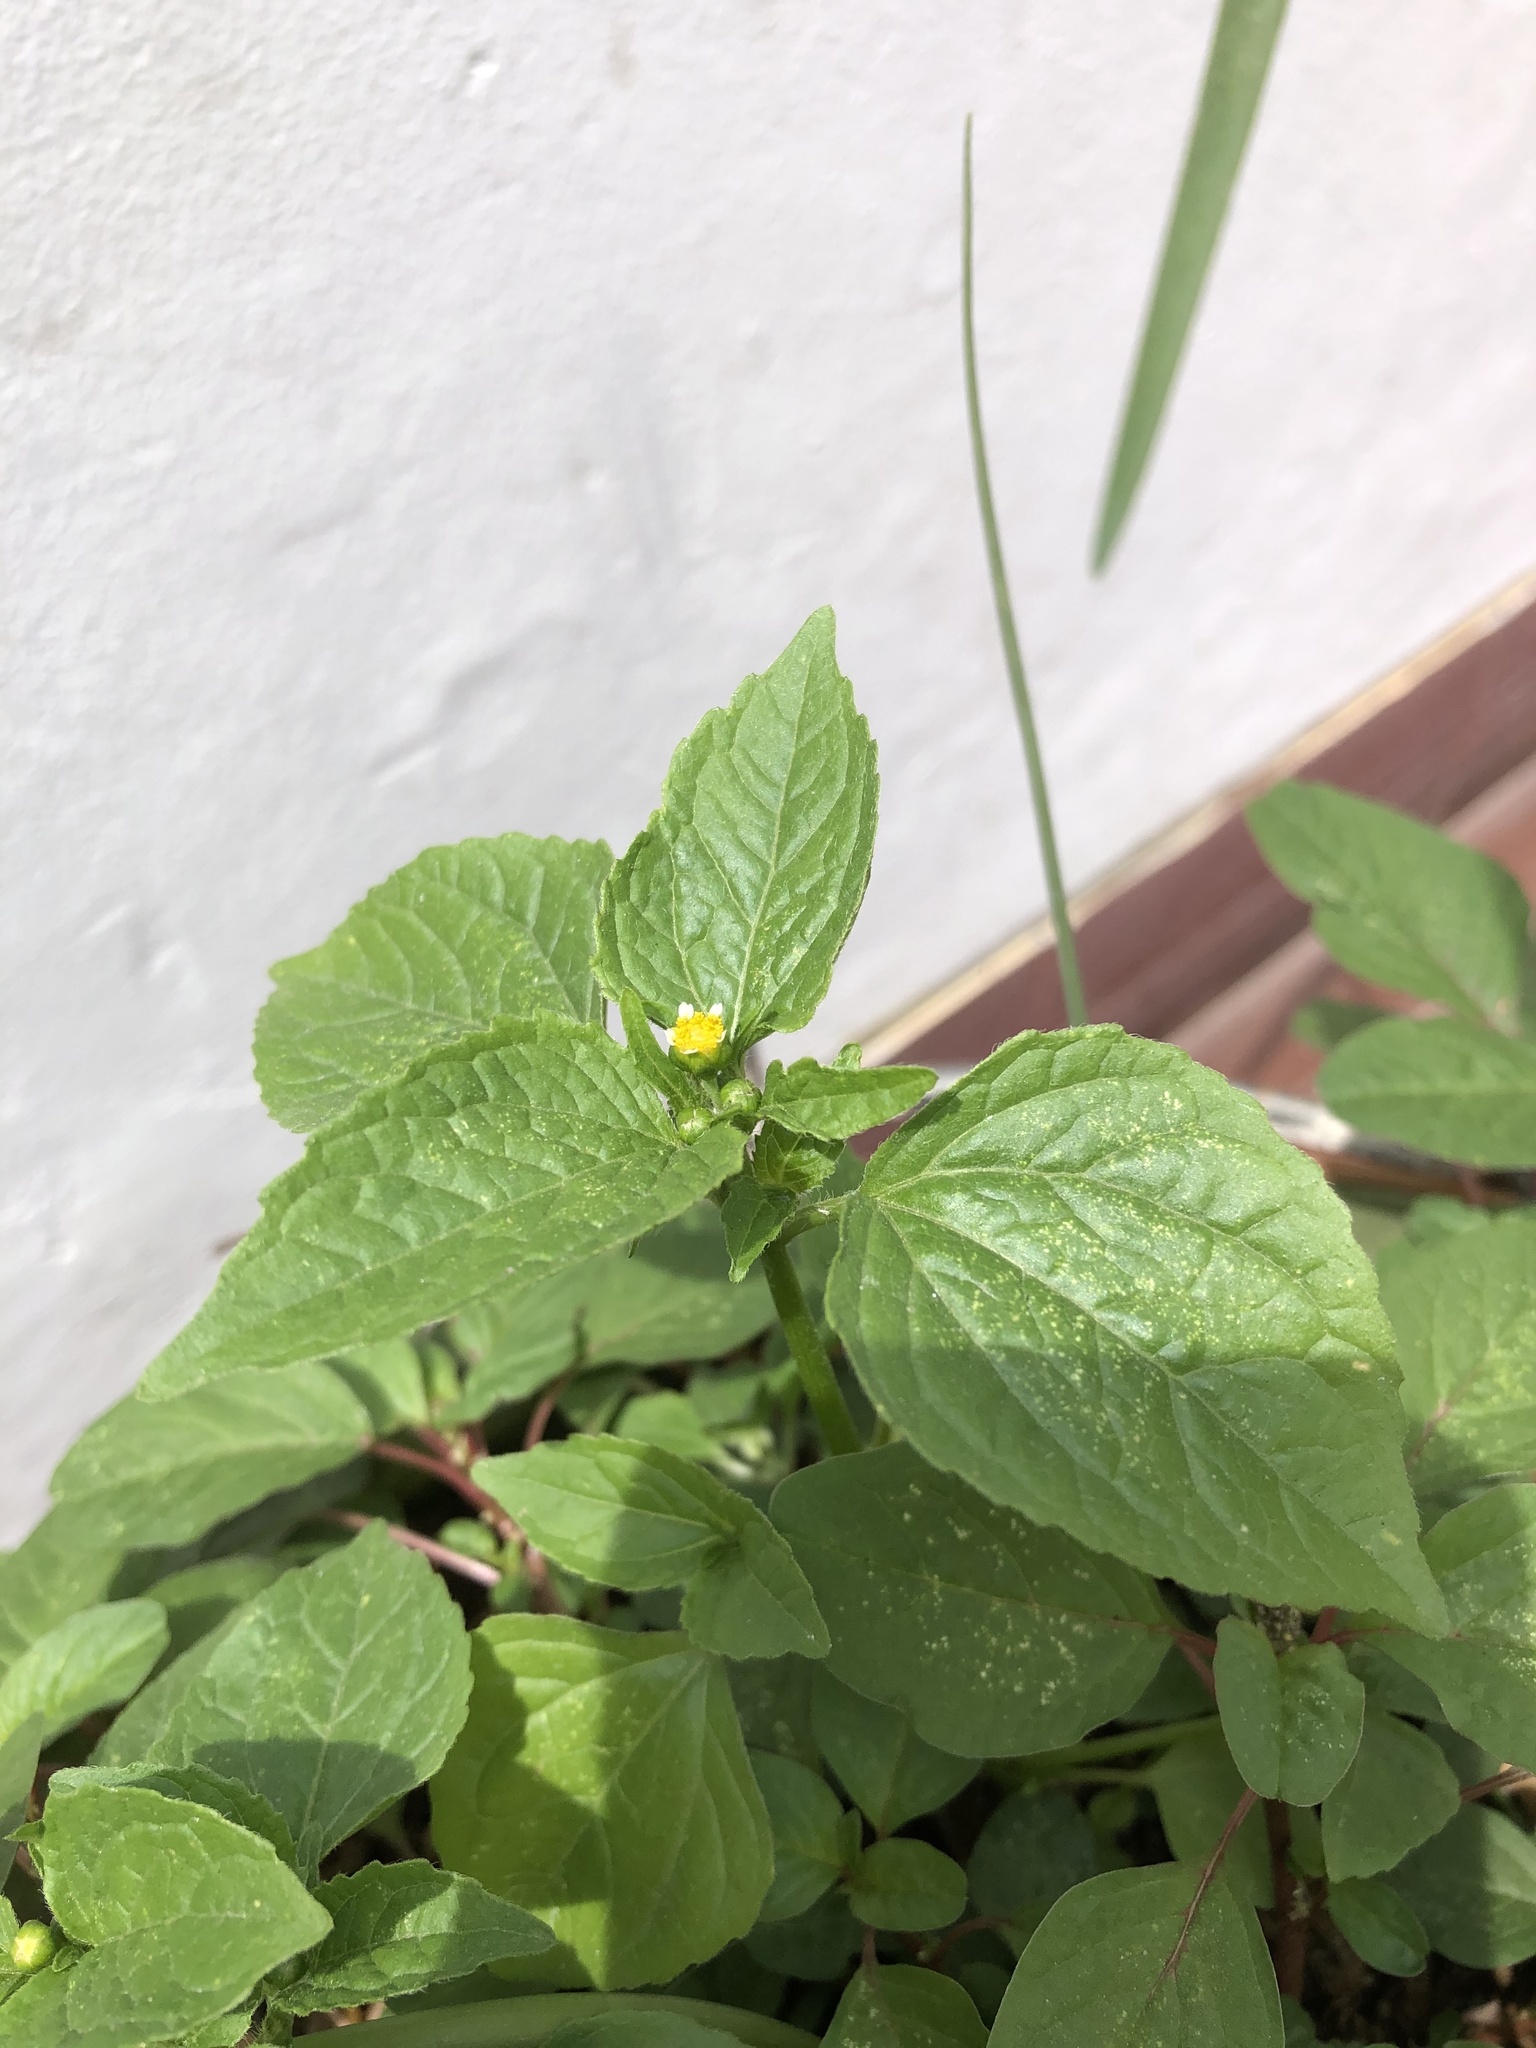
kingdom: Plantae
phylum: Tracheophyta
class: Magnoliopsida
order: Asterales
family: Asteraceae
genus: Galinsoga
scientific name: Galinsoga parviflora
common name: Gallant soldier
